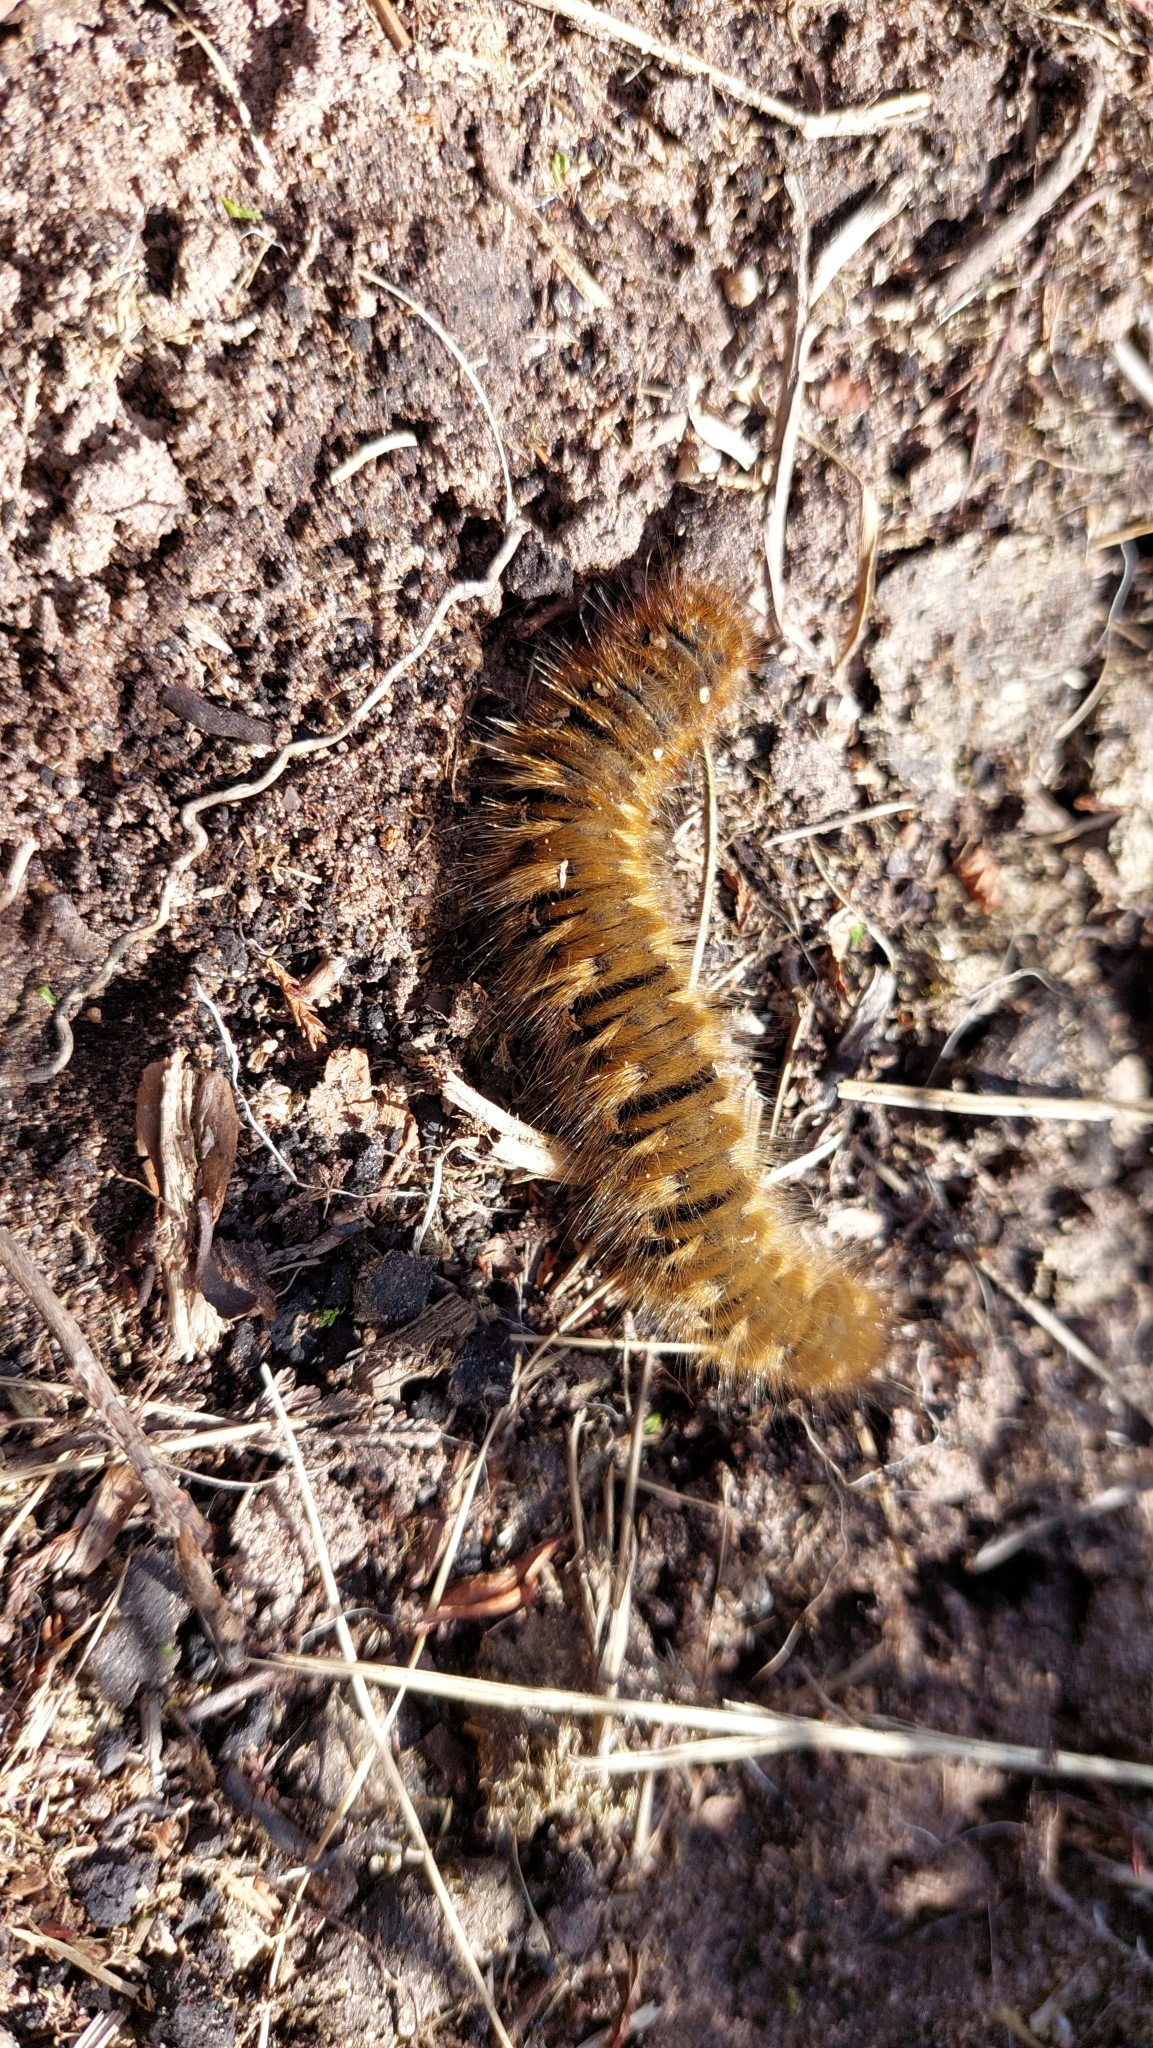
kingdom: Animalia
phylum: Arthropoda
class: Insecta
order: Lepidoptera
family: Lasiocampidae
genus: Lasiocampa
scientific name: Lasiocampa quercus
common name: Oak eggar
